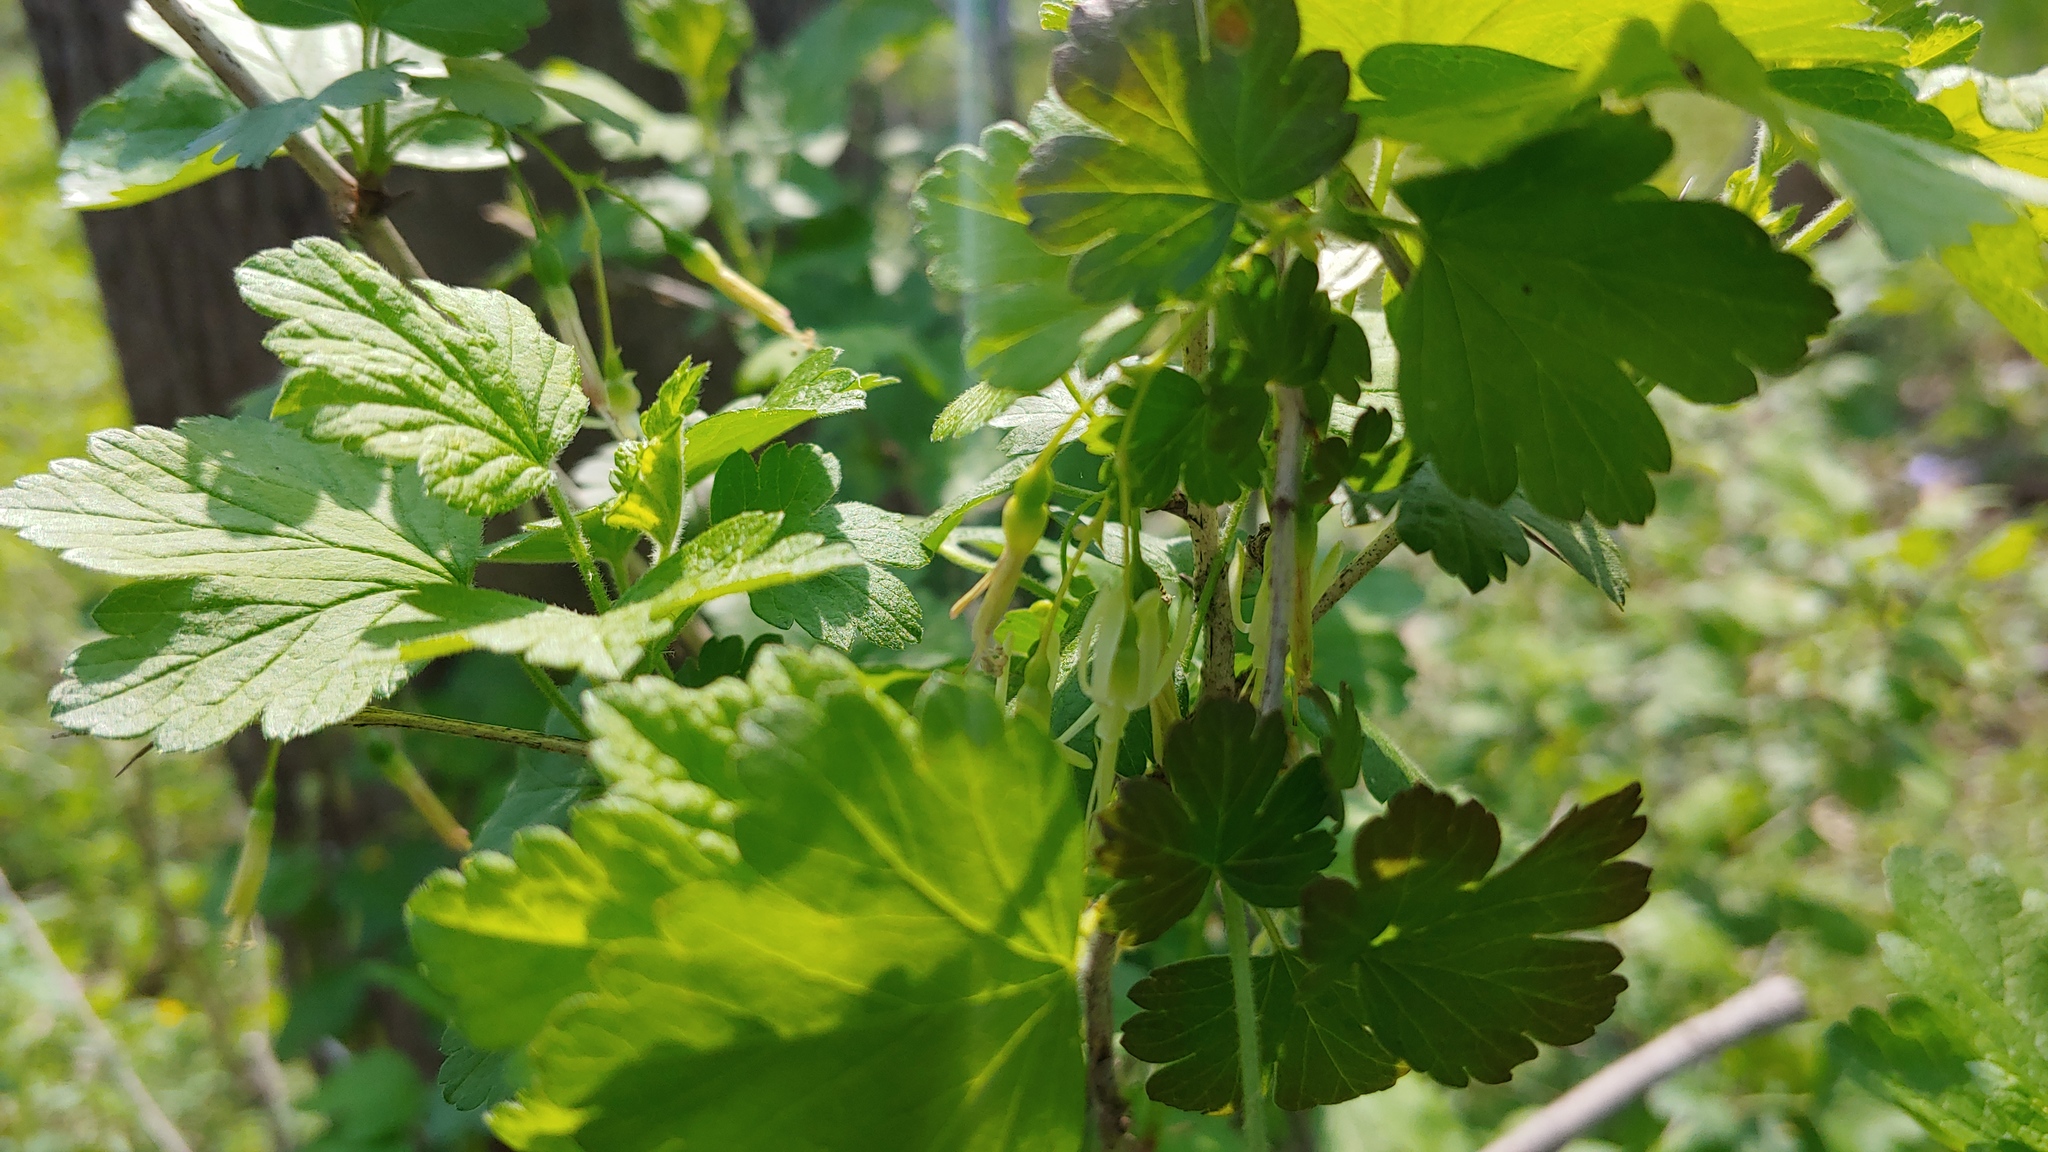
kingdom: Plantae
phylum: Tracheophyta
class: Magnoliopsida
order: Saxifragales
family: Grossulariaceae
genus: Ribes
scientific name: Ribes missouriense
